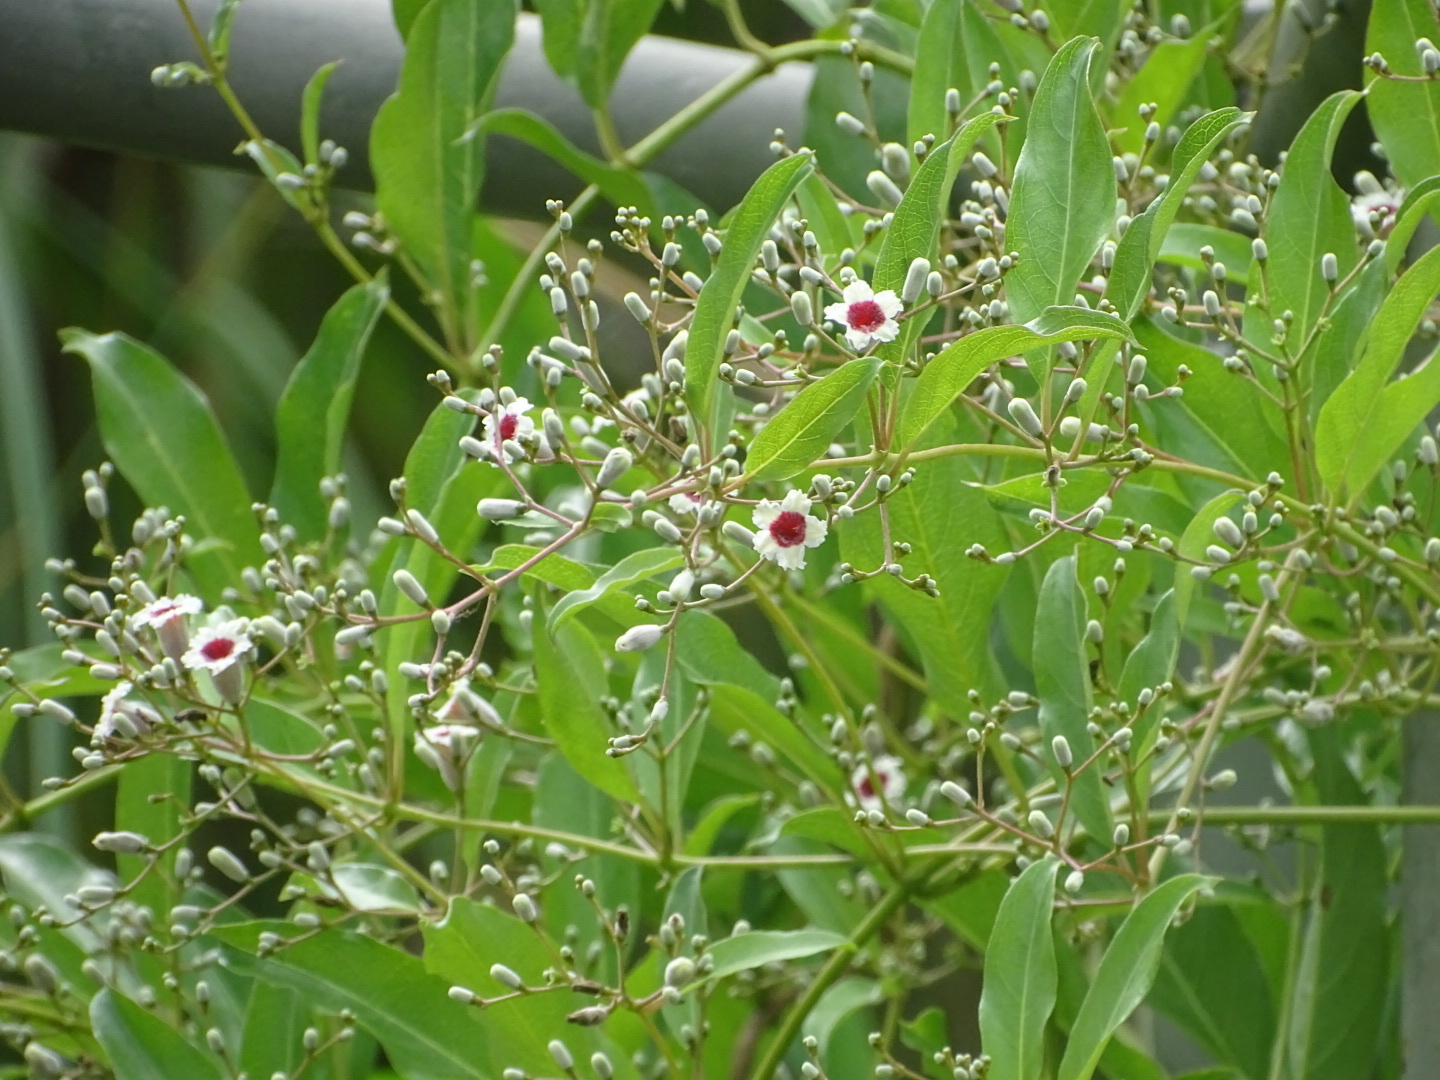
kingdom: Plantae
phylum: Tracheophyta
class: Magnoliopsida
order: Gentianales
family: Rubiaceae
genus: Paederia
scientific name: Paederia foetida
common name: Stinkvine
